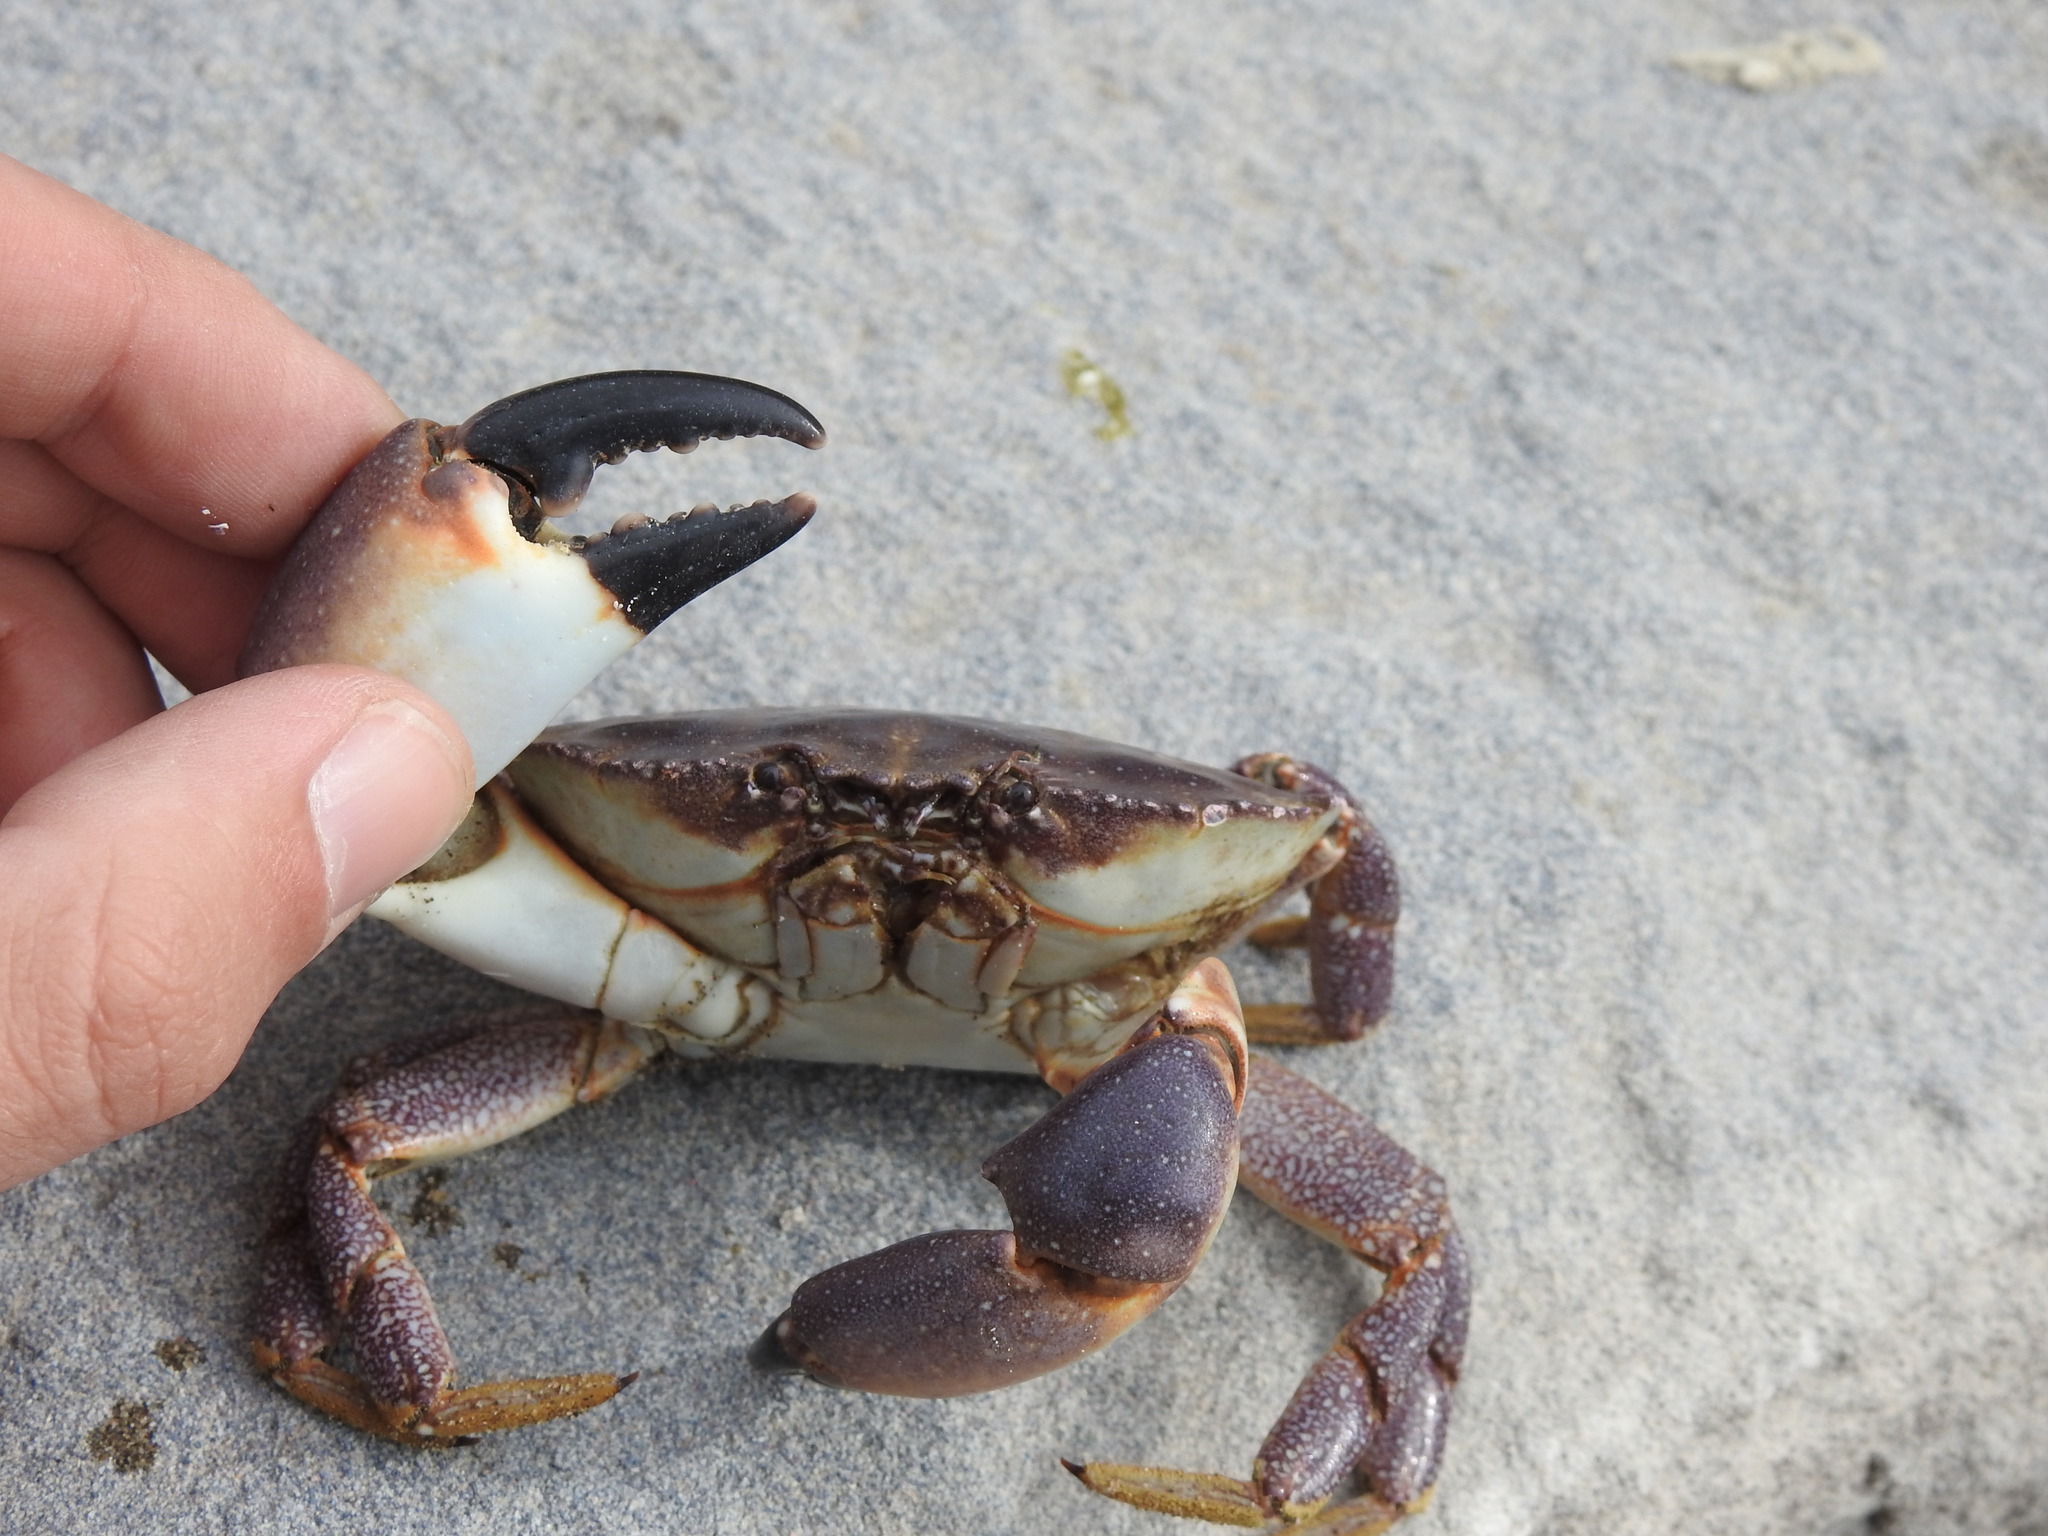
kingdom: Animalia
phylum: Arthropoda
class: Malacostraca
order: Decapoda
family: Platyxanthidae
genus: Danielethus
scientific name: Danielethus crenulatus
